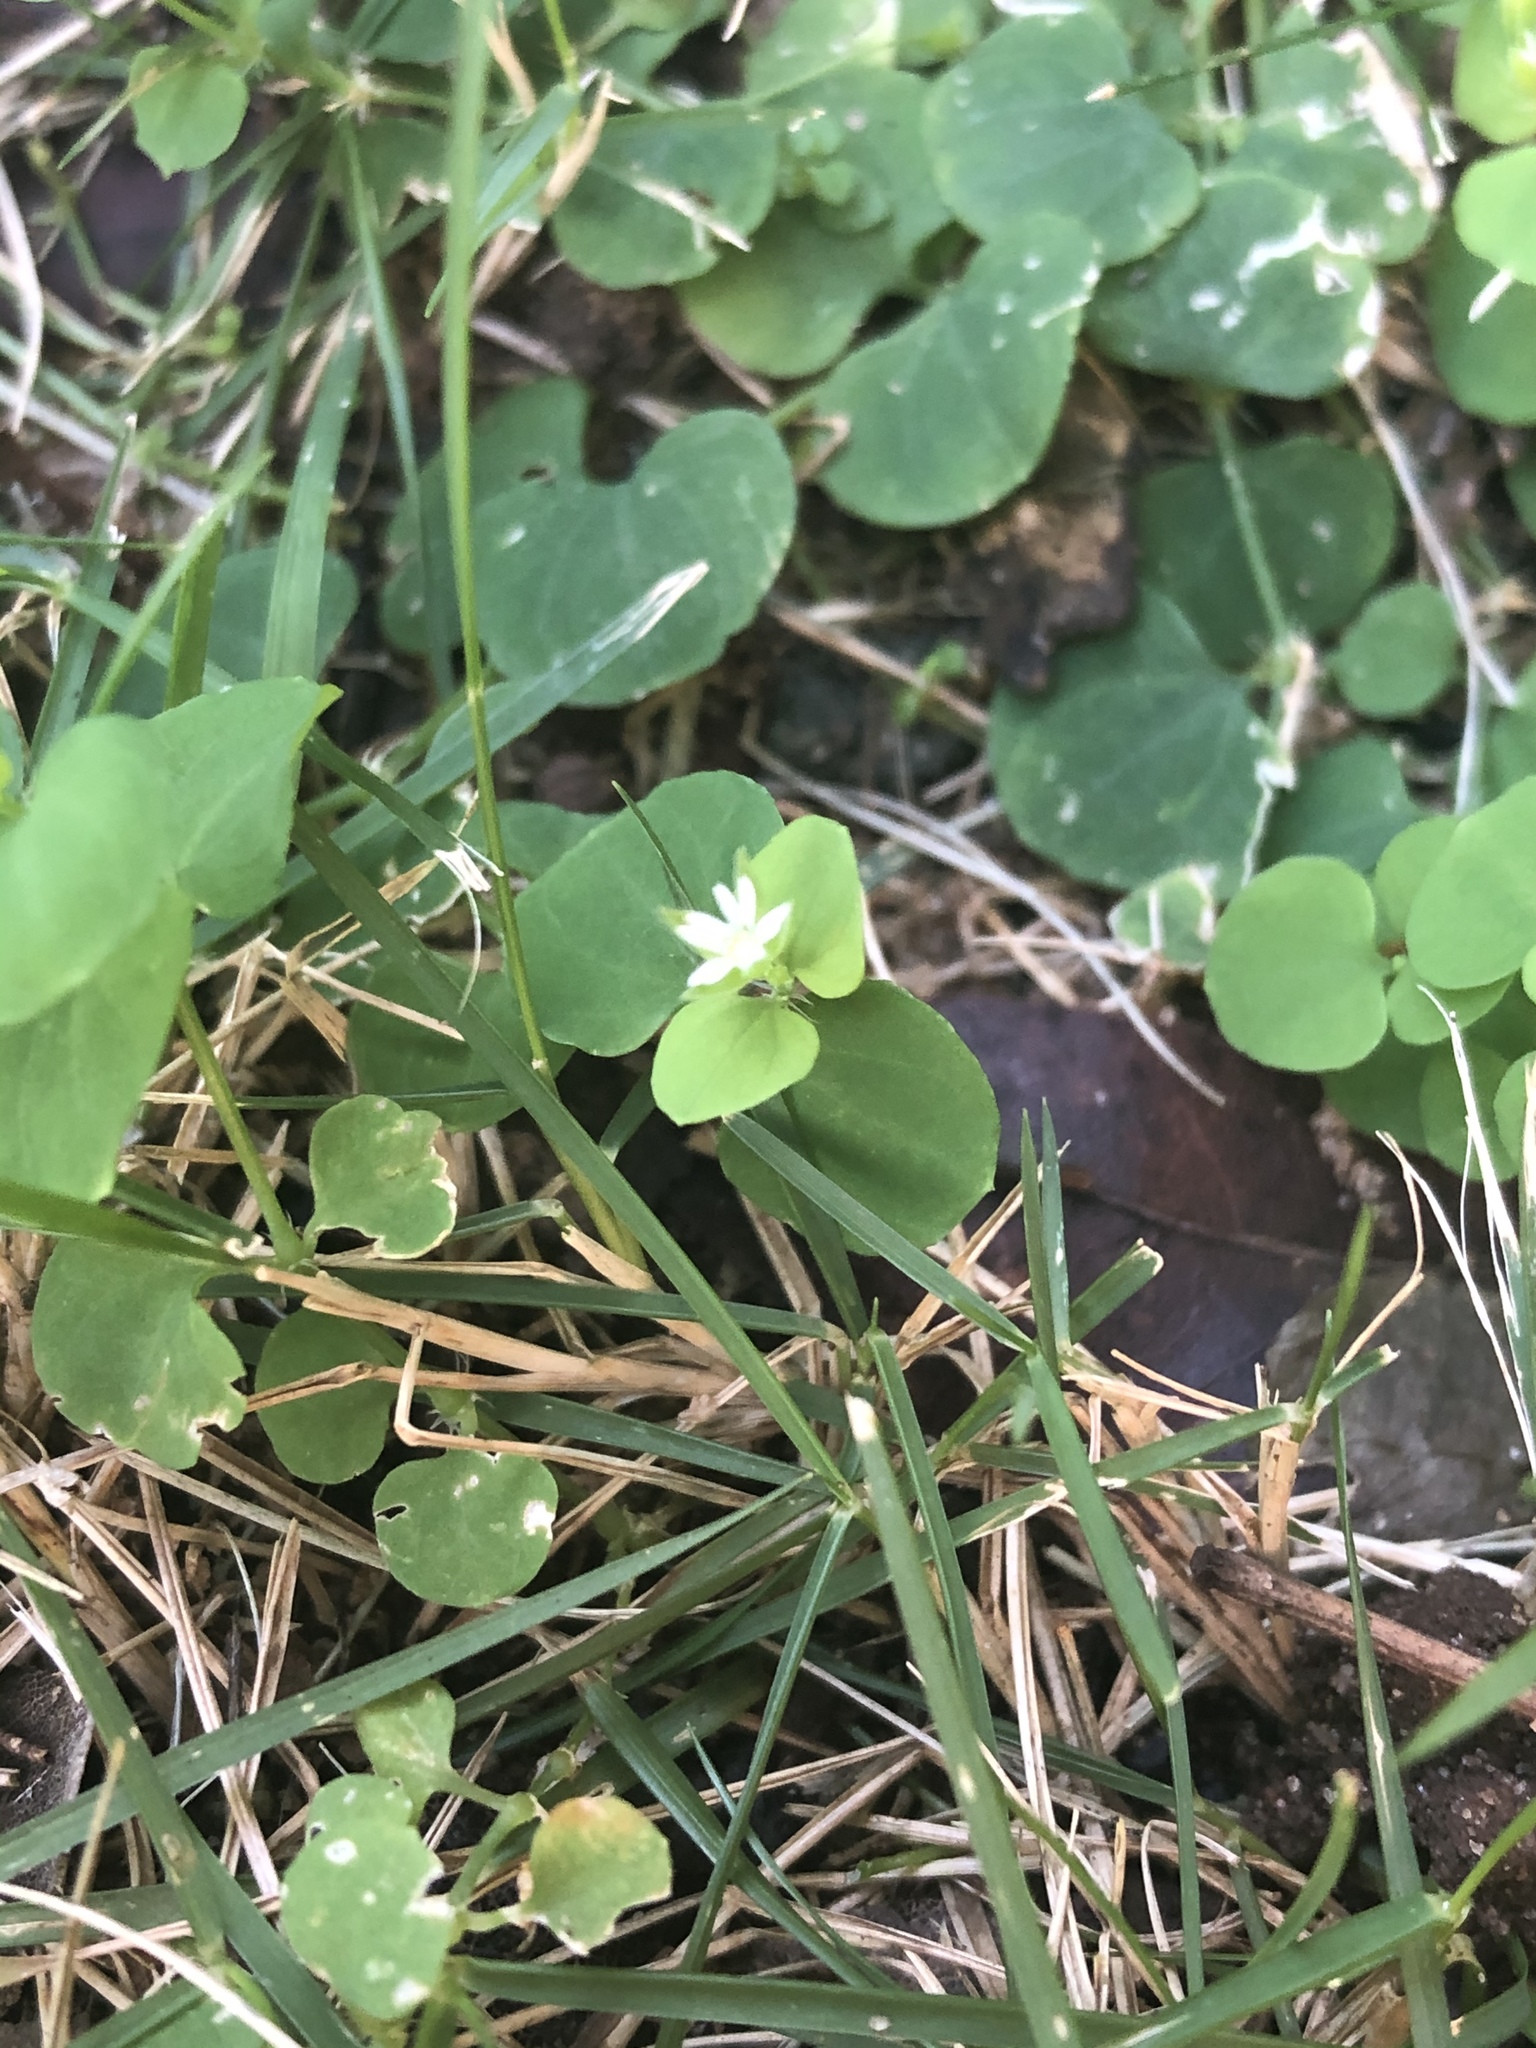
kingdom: Plantae
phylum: Tracheophyta
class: Magnoliopsida
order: Caryophyllales
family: Caryophyllaceae
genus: Drymaria
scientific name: Drymaria cordata
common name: Whitesnow
